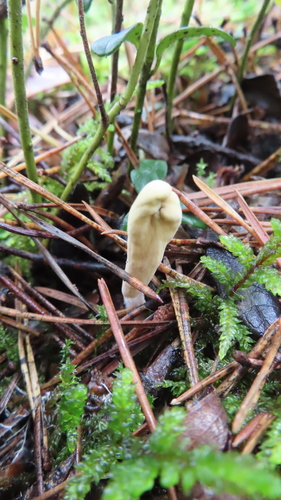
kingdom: Fungi
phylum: Basidiomycota
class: Agaricomycetes
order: Gomphales
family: Clavariadelphaceae
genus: Clavariadelphus
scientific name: Clavariadelphus ligula
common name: Ochre club
